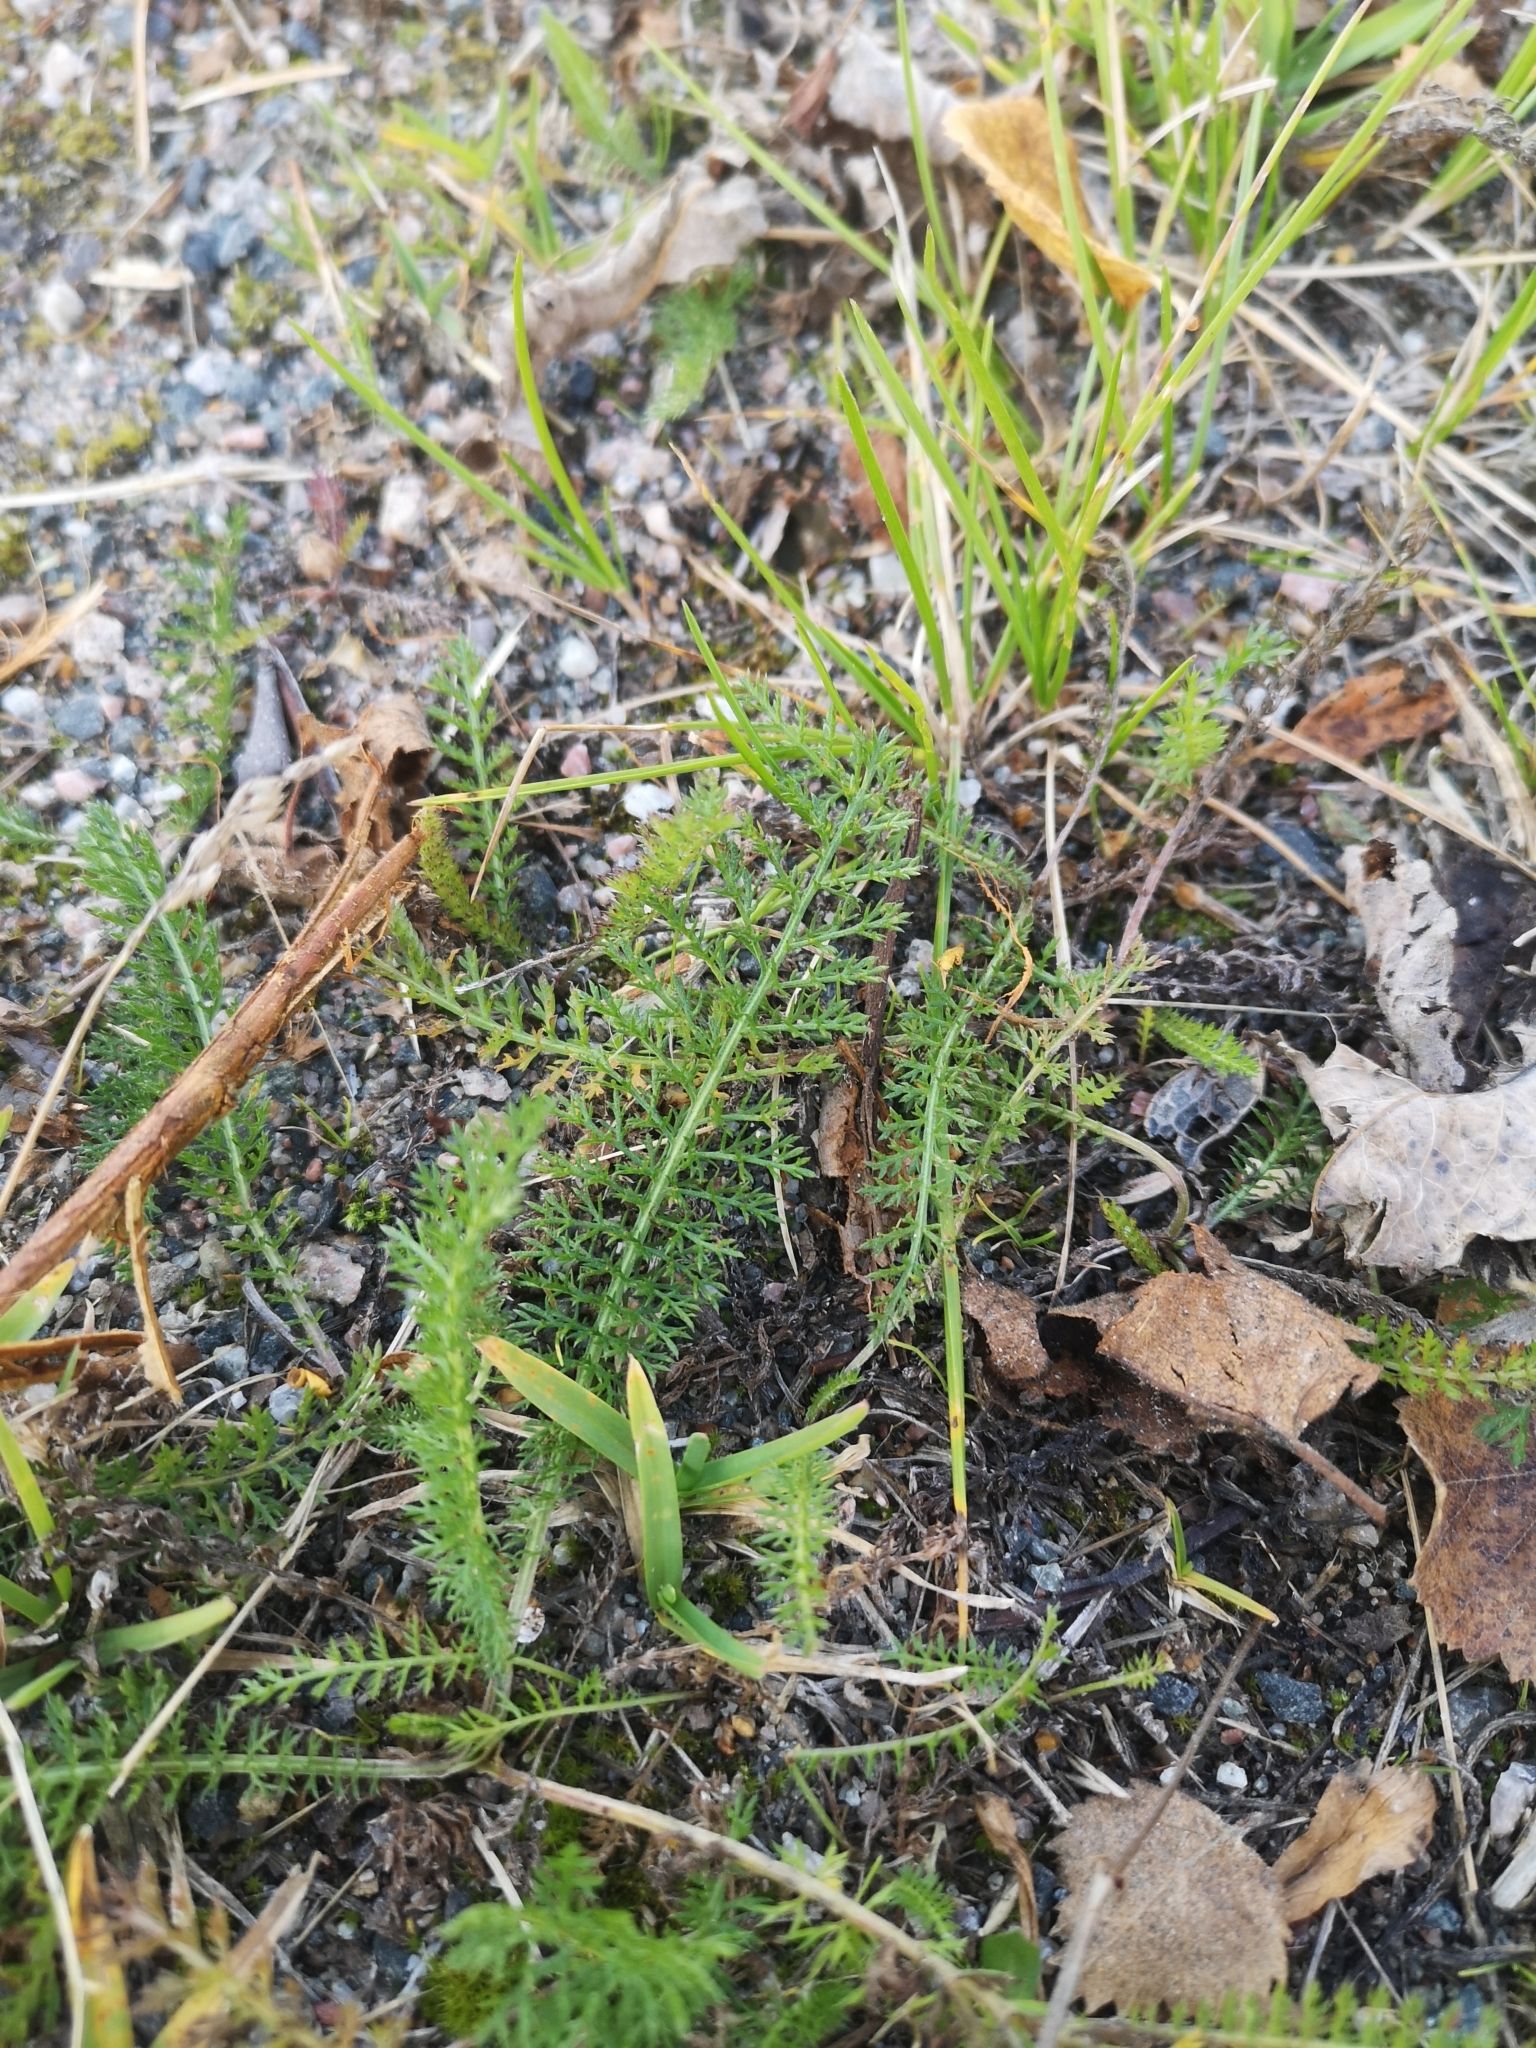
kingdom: Plantae
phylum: Tracheophyta
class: Magnoliopsida
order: Asterales
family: Asteraceae
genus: Achillea
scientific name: Achillea millefolium
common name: Yarrow
